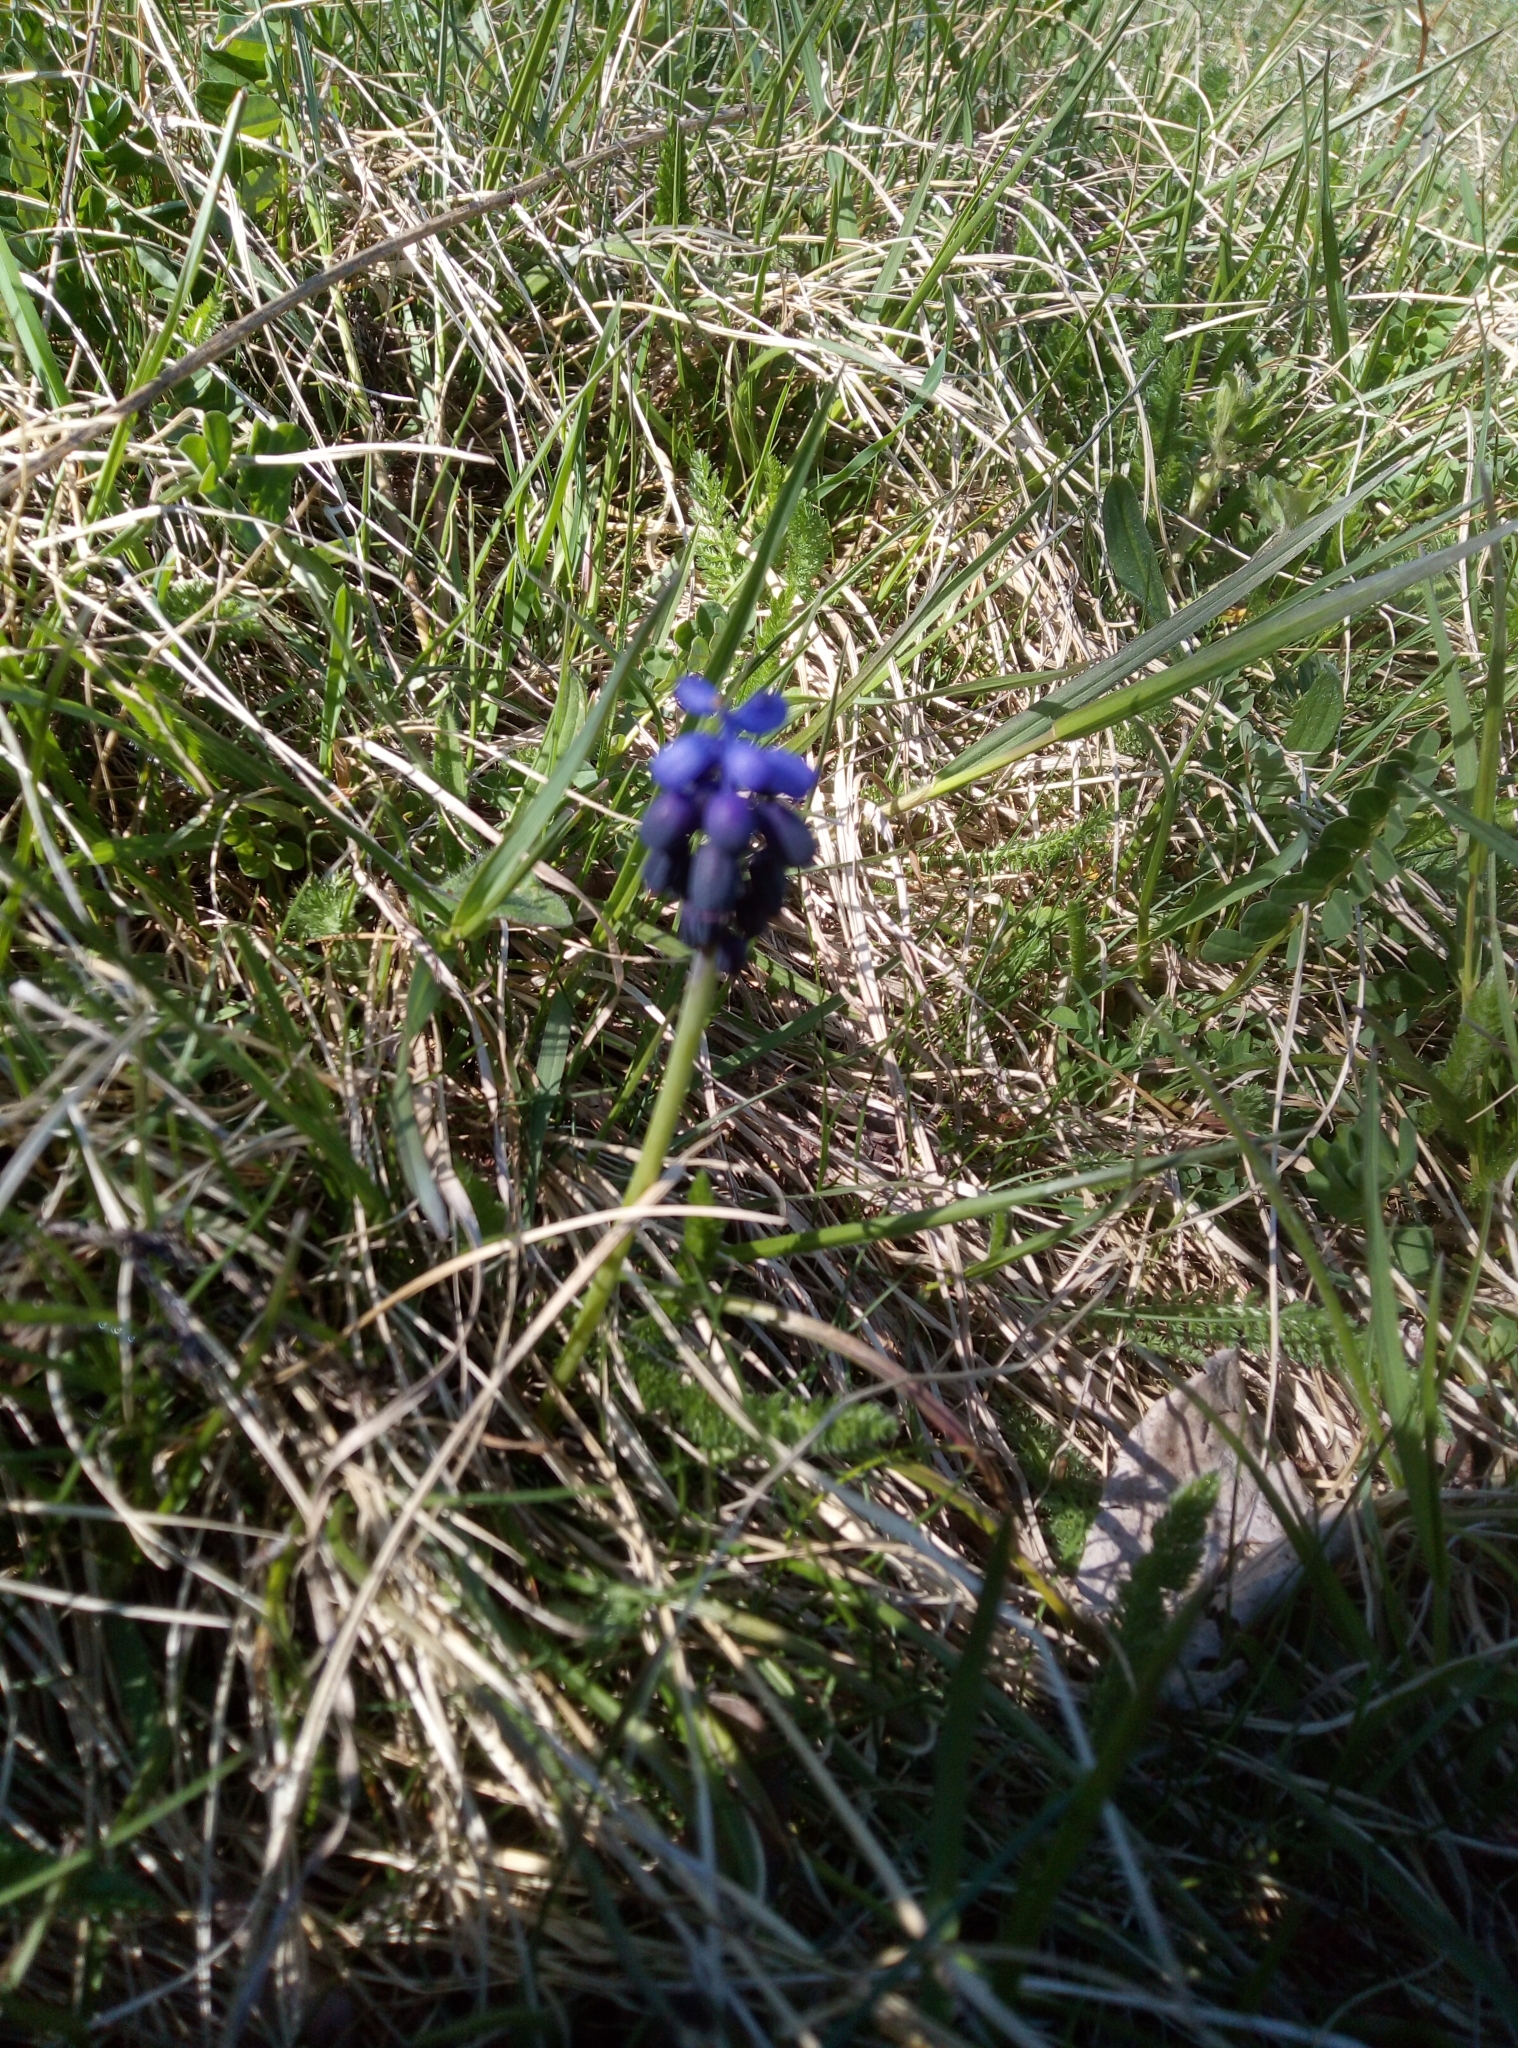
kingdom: Plantae
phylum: Tracheophyta
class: Liliopsida
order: Asparagales
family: Asparagaceae
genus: Muscari
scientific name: Muscari neglectum
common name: Grape-hyacinth
